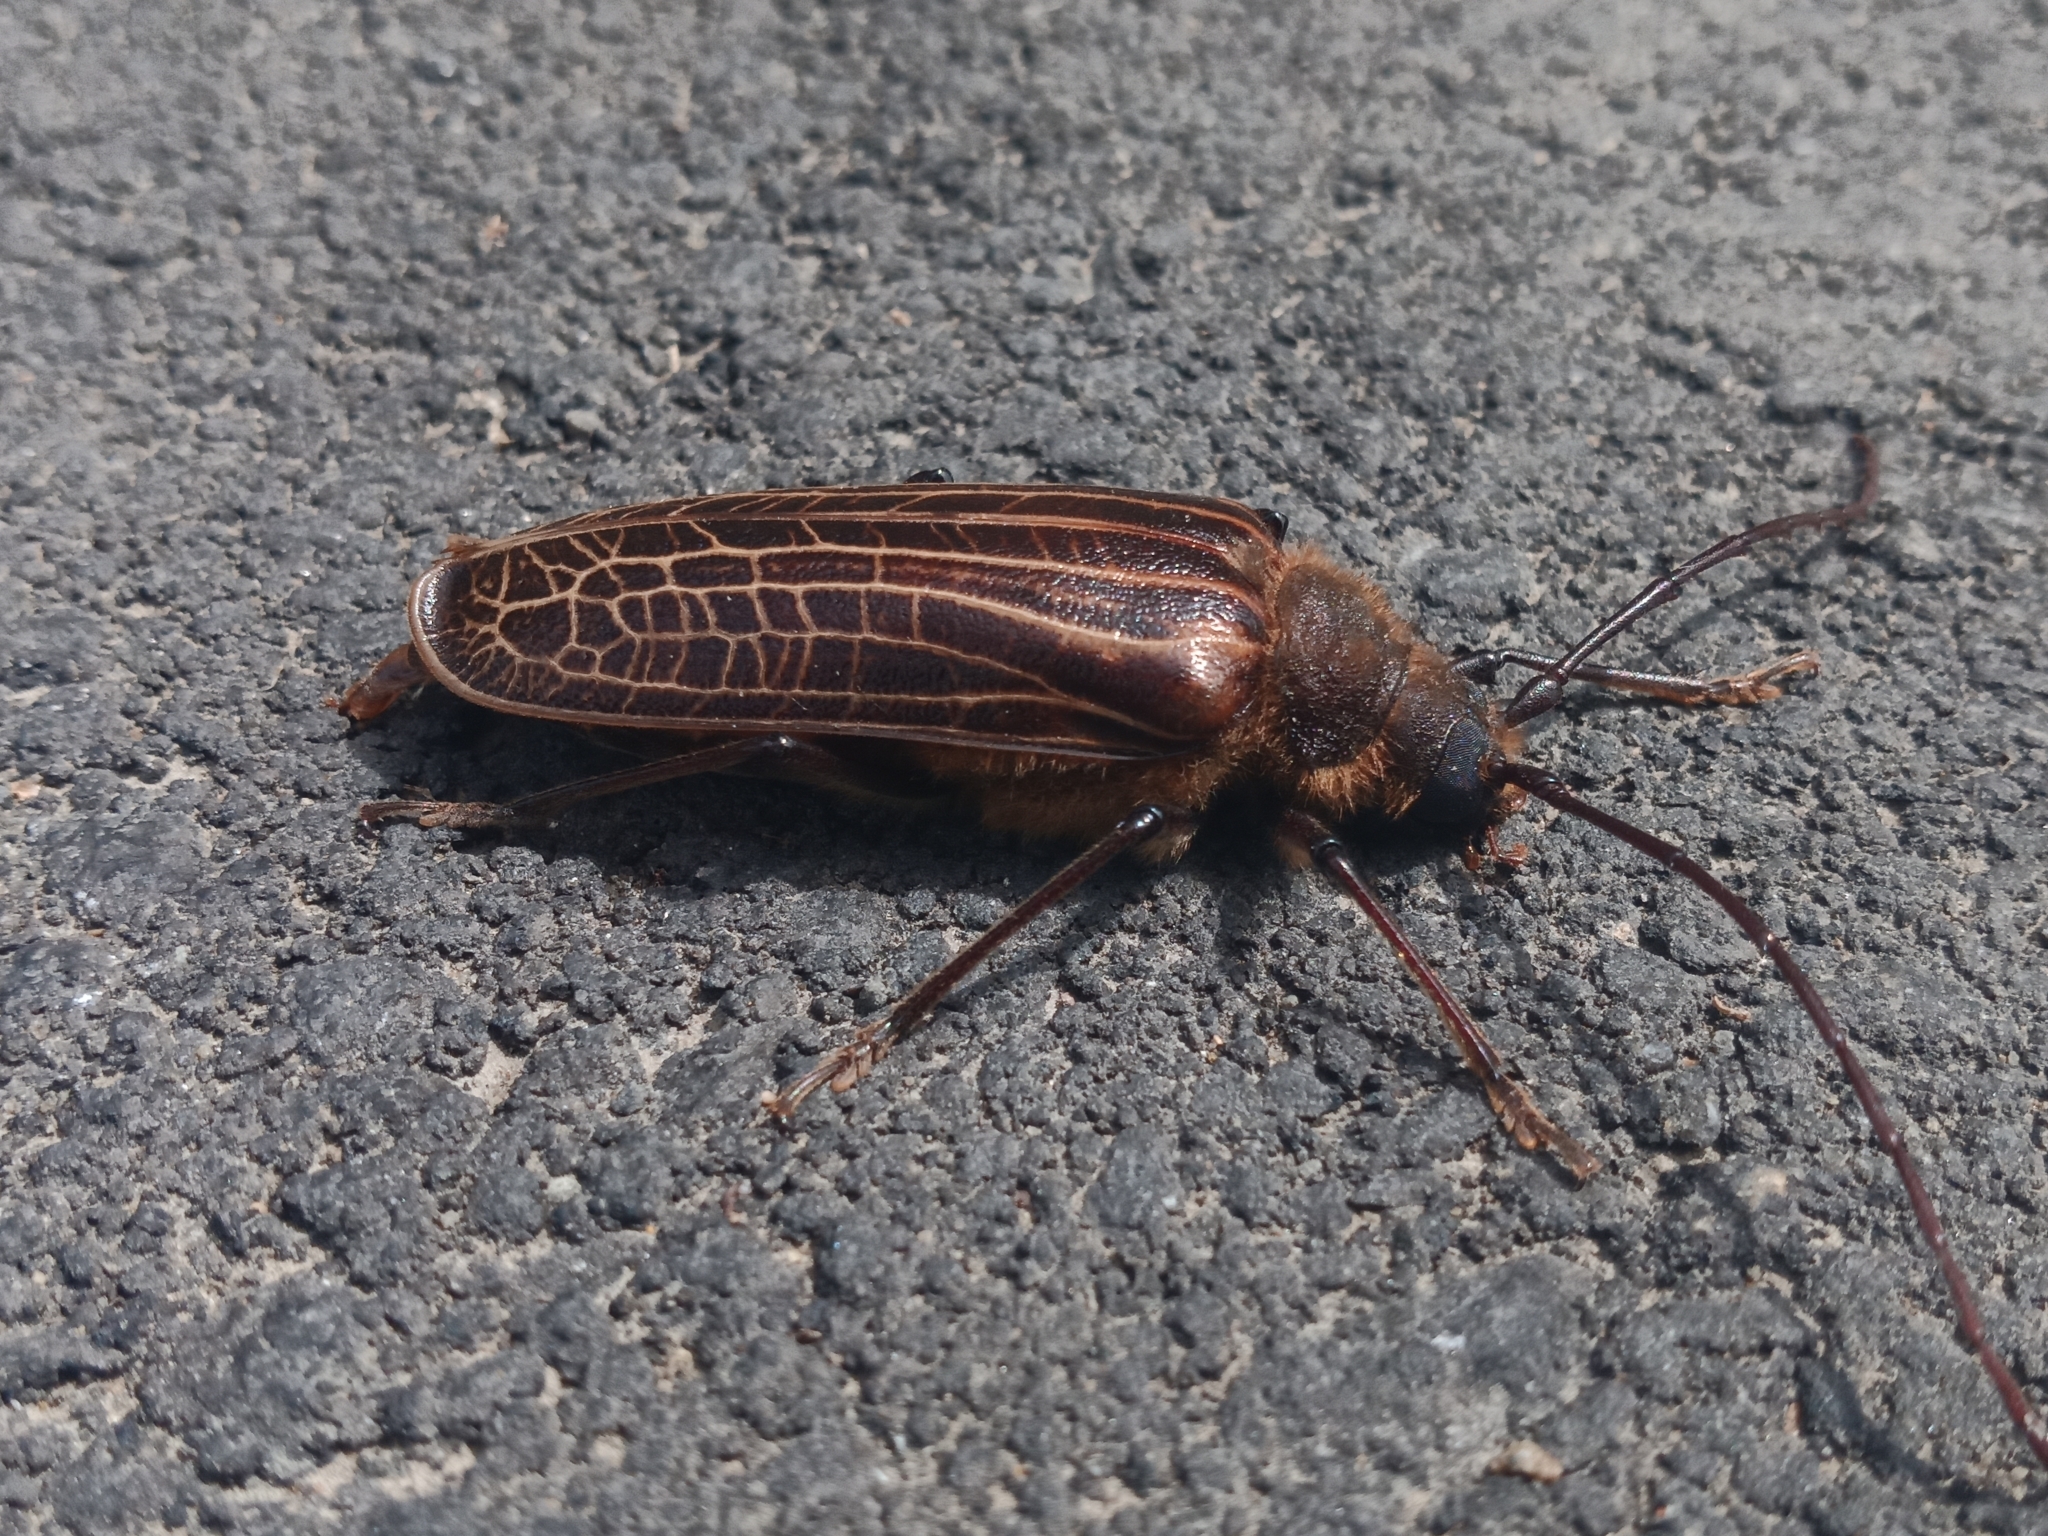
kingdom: Animalia
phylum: Arthropoda
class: Insecta
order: Coleoptera
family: Cerambycidae
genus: Prionoplus
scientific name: Prionoplus reticularis
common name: Huhu beetle
